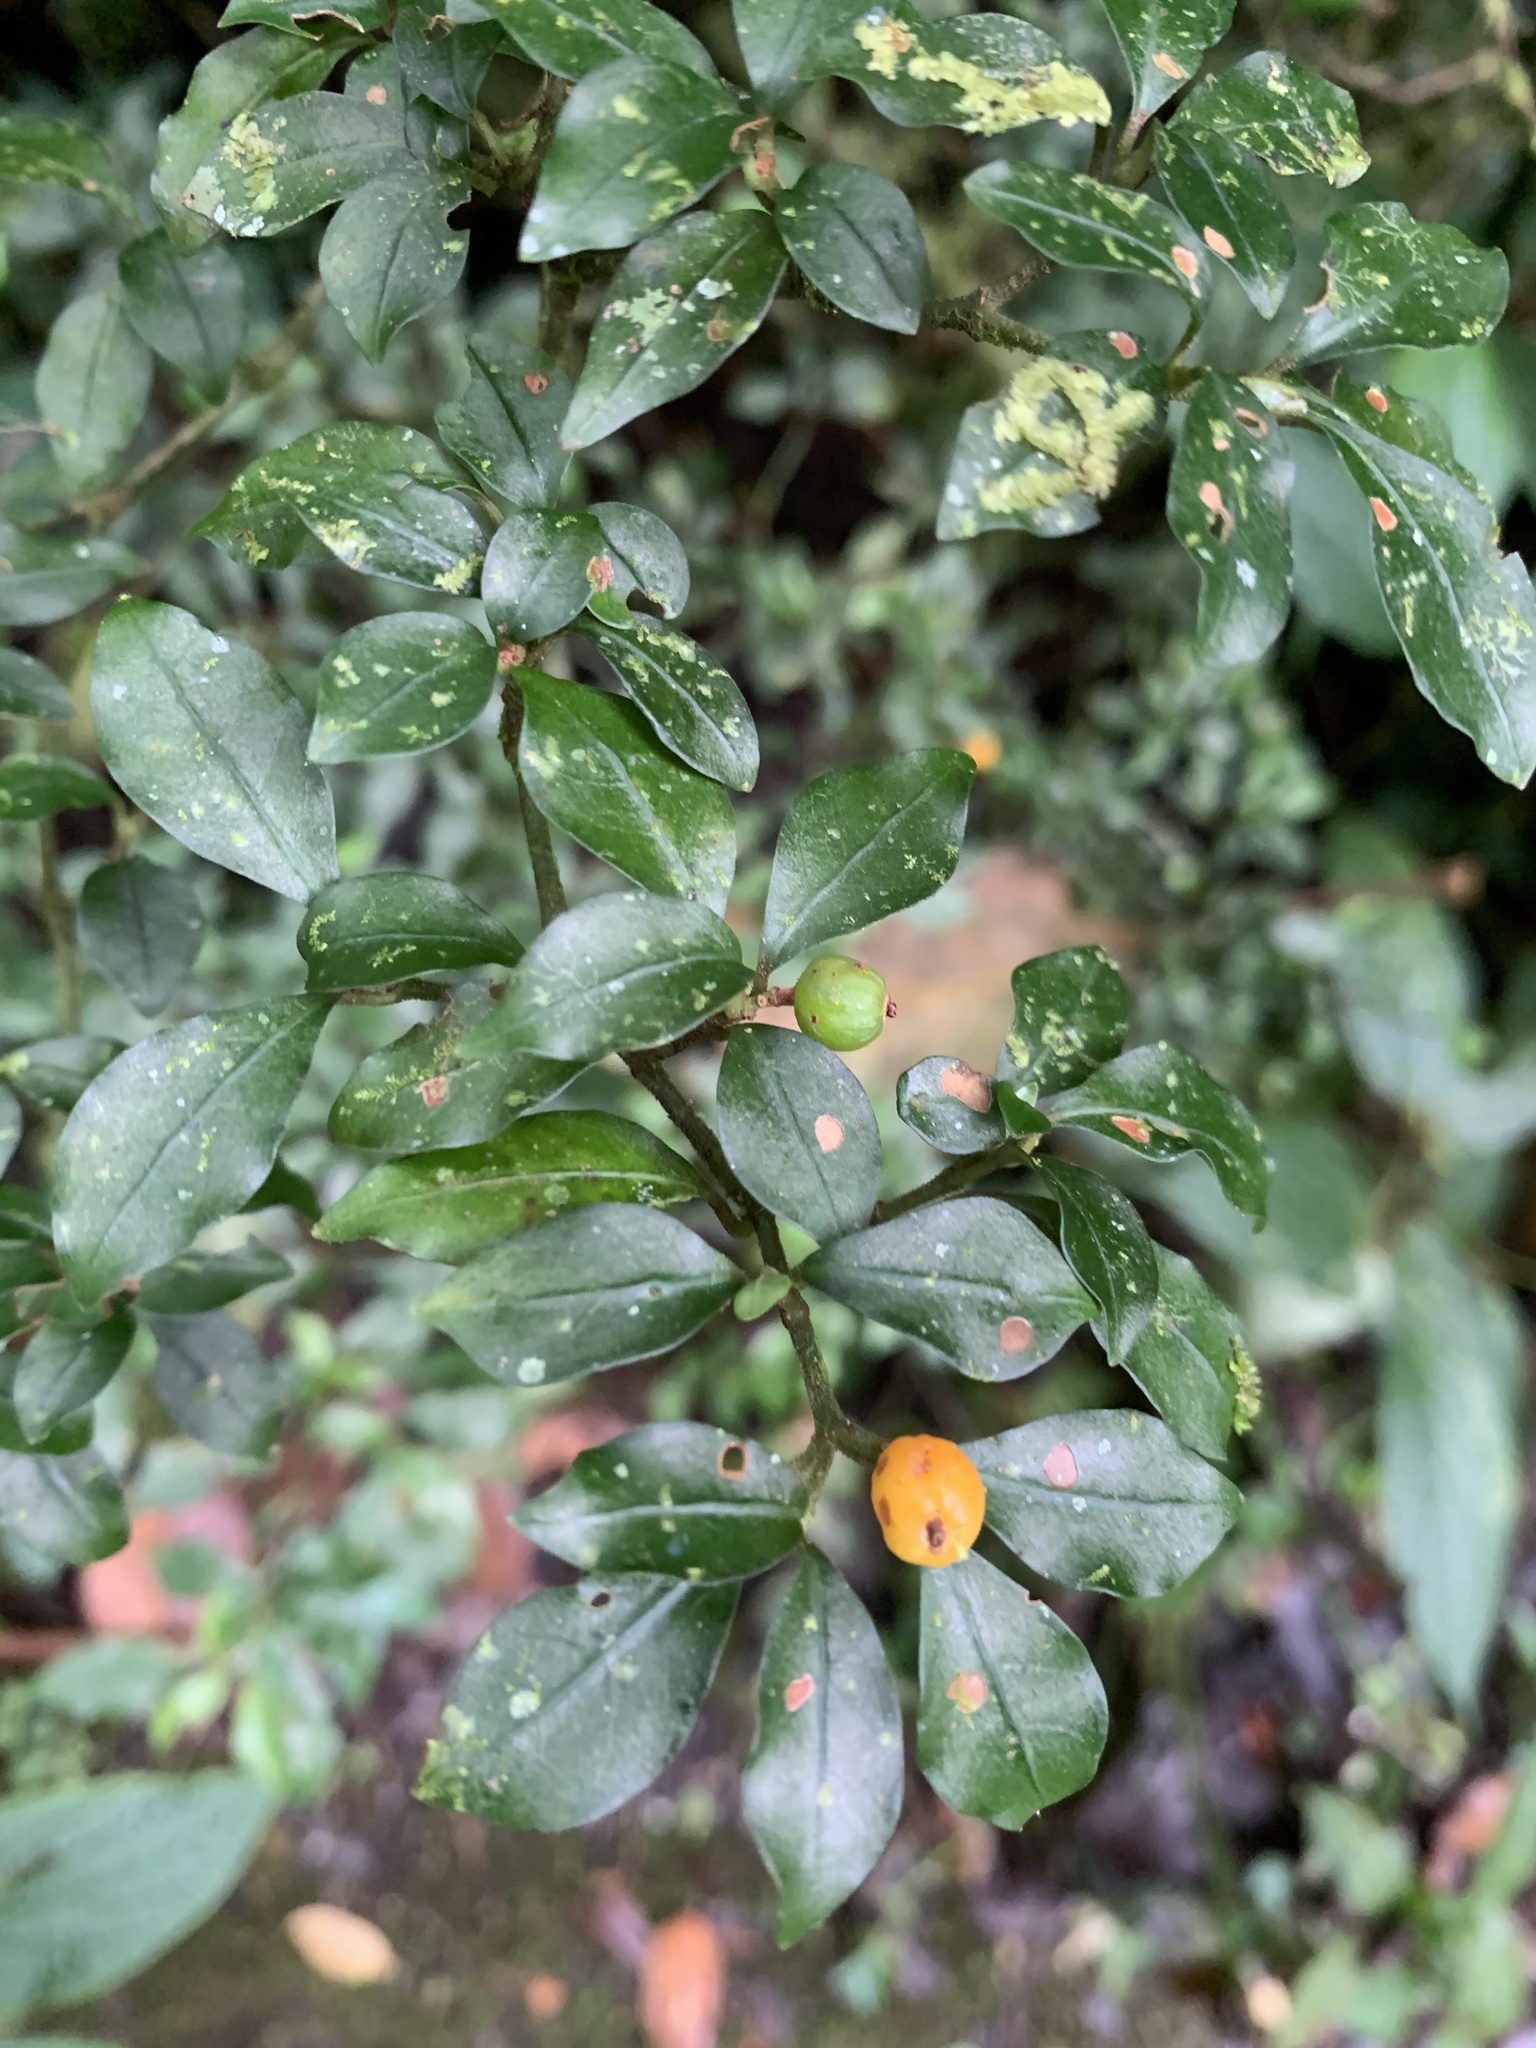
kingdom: Plantae
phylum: Tracheophyta
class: Magnoliopsida
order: Gentianales
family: Rubiaceae
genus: Psychotria
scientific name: Psychotria parvifolia
